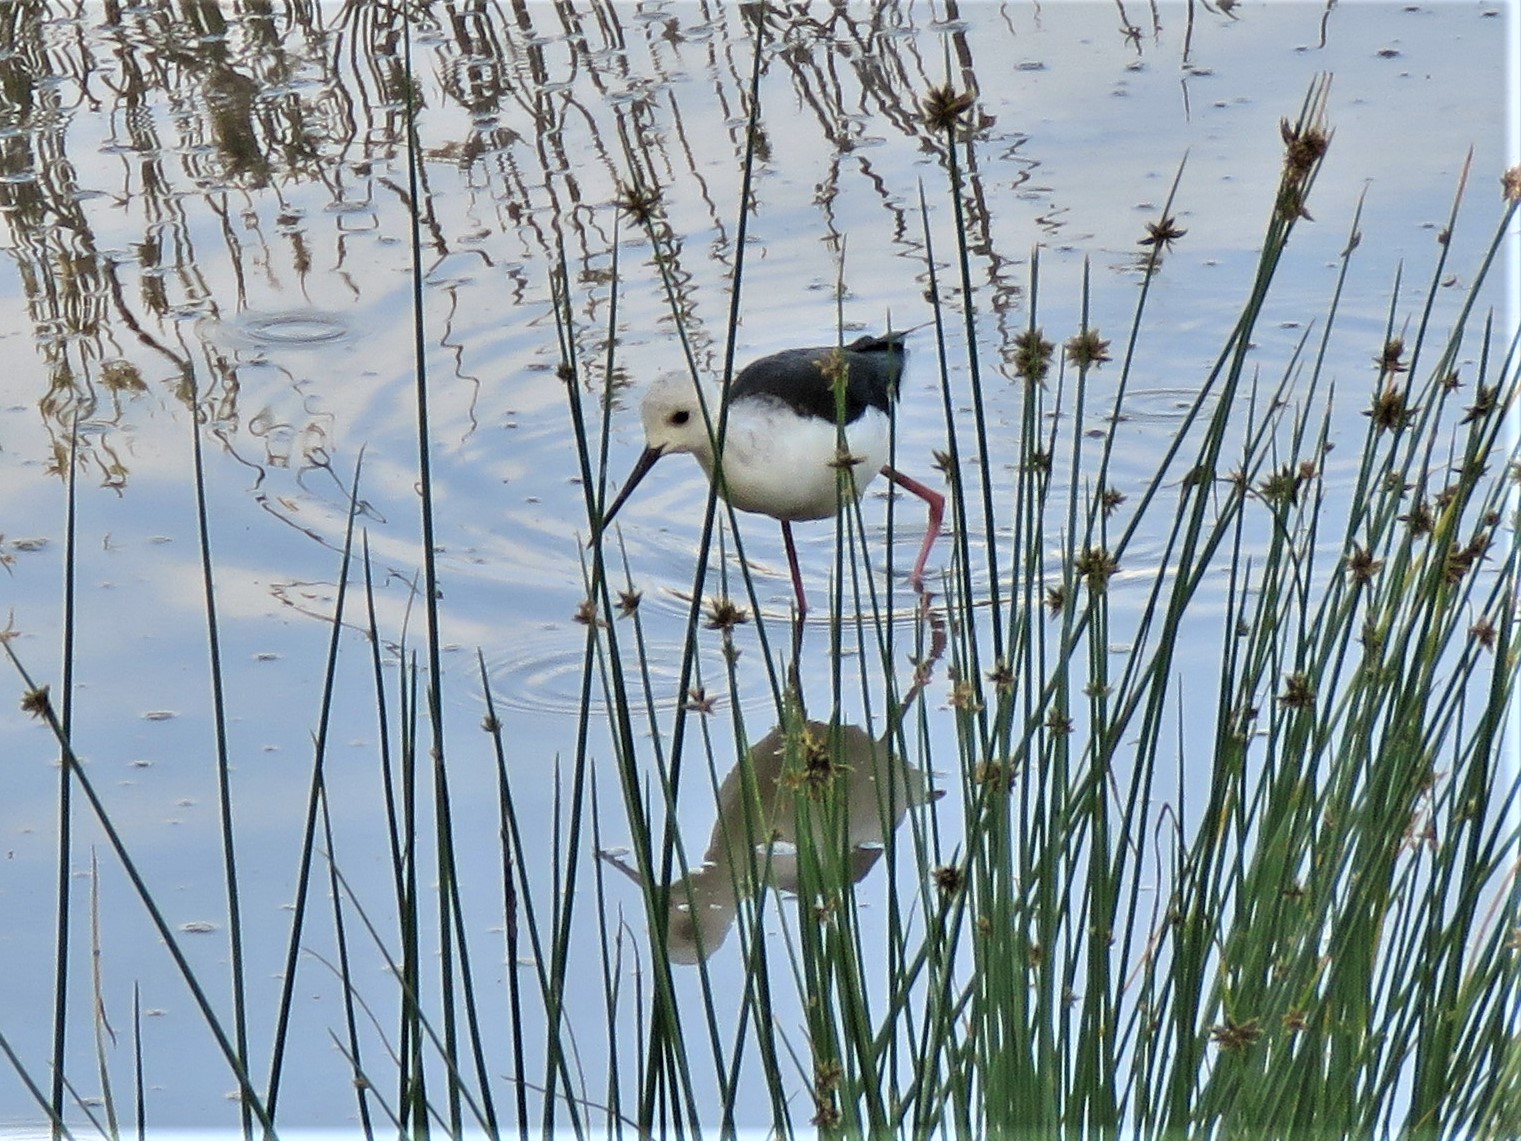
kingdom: Animalia
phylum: Chordata
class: Aves
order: Charadriiformes
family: Recurvirostridae
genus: Himantopus
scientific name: Himantopus himantopus
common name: Black-winged stilt
